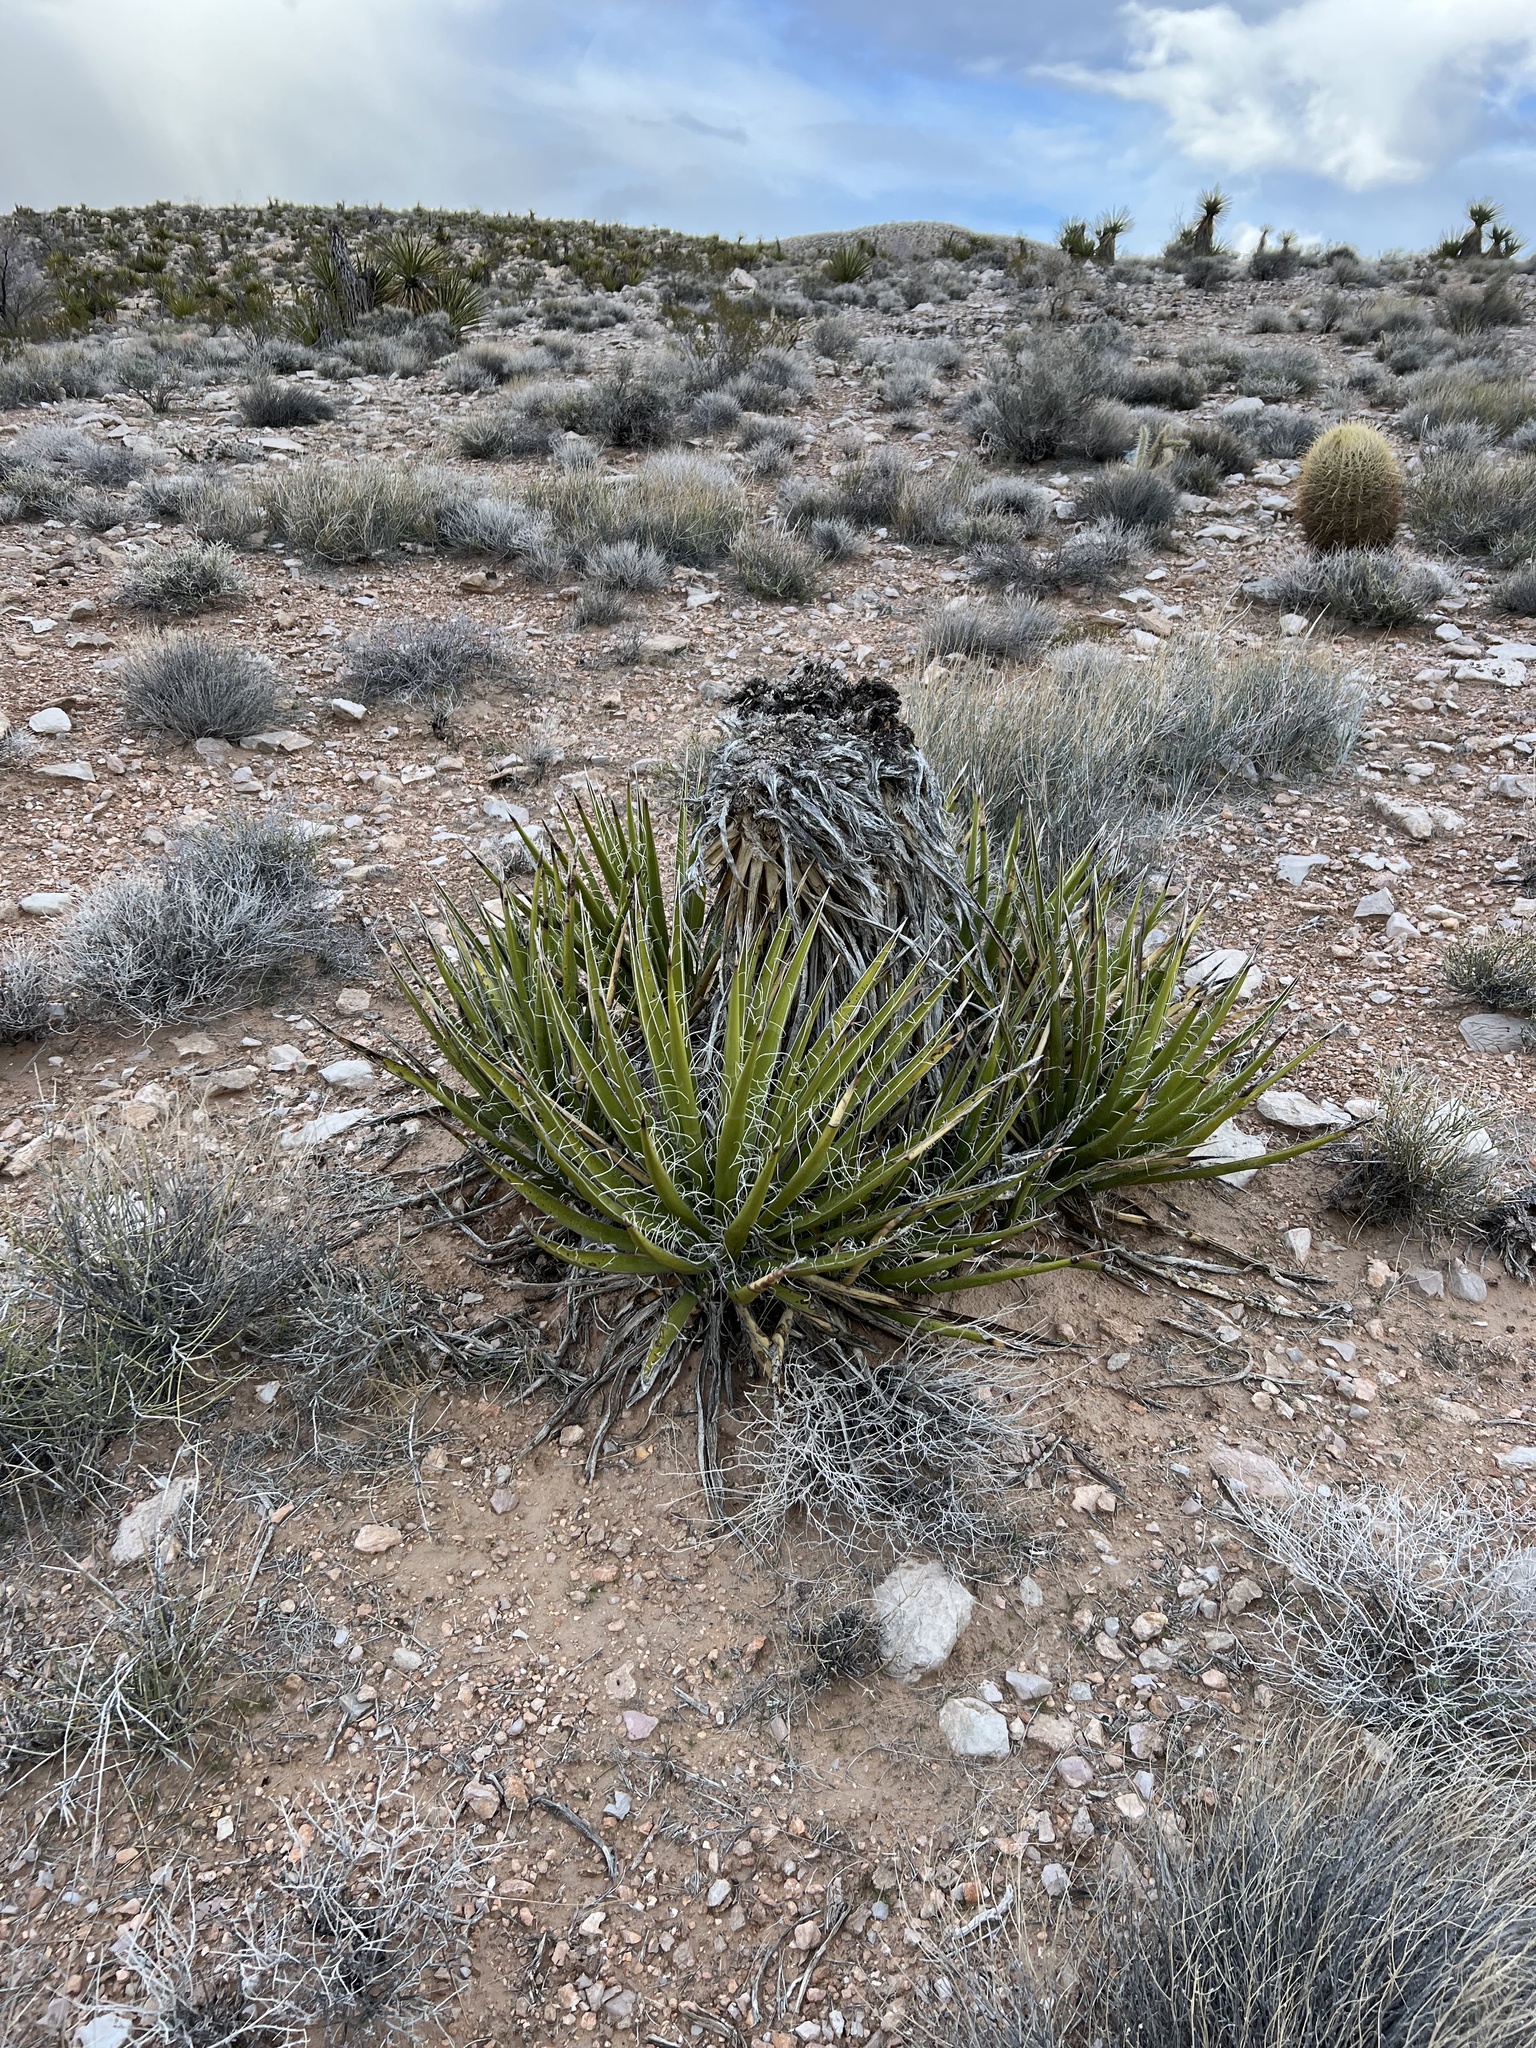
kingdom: Plantae
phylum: Tracheophyta
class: Liliopsida
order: Asparagales
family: Asparagaceae
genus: Yucca
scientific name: Yucca schidigera
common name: Mojave yucca
